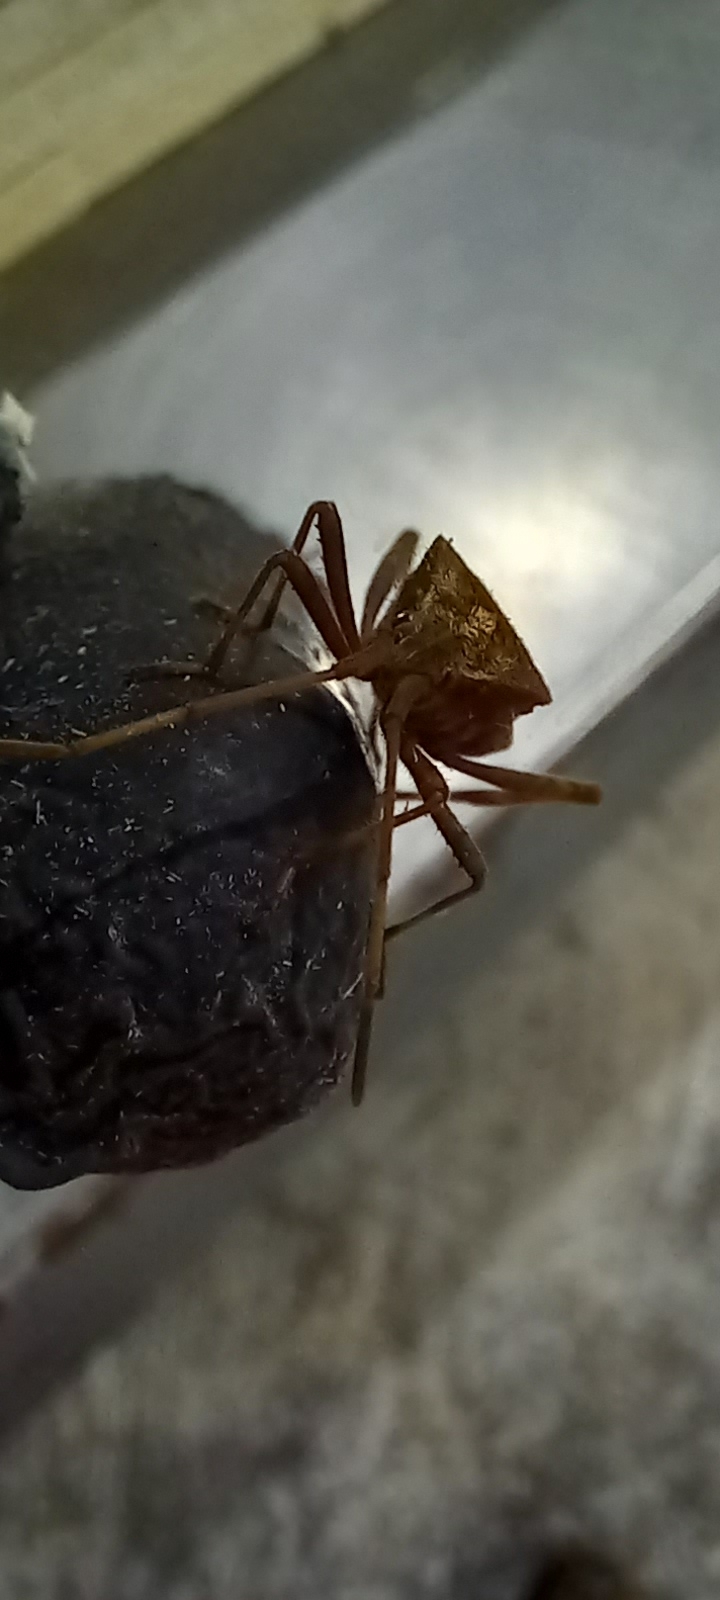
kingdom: Animalia
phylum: Arthropoda
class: Insecta
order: Hemiptera
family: Coreidae
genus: Leptoglossus
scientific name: Leptoglossus occidentalis
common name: Western conifer-seed bug
